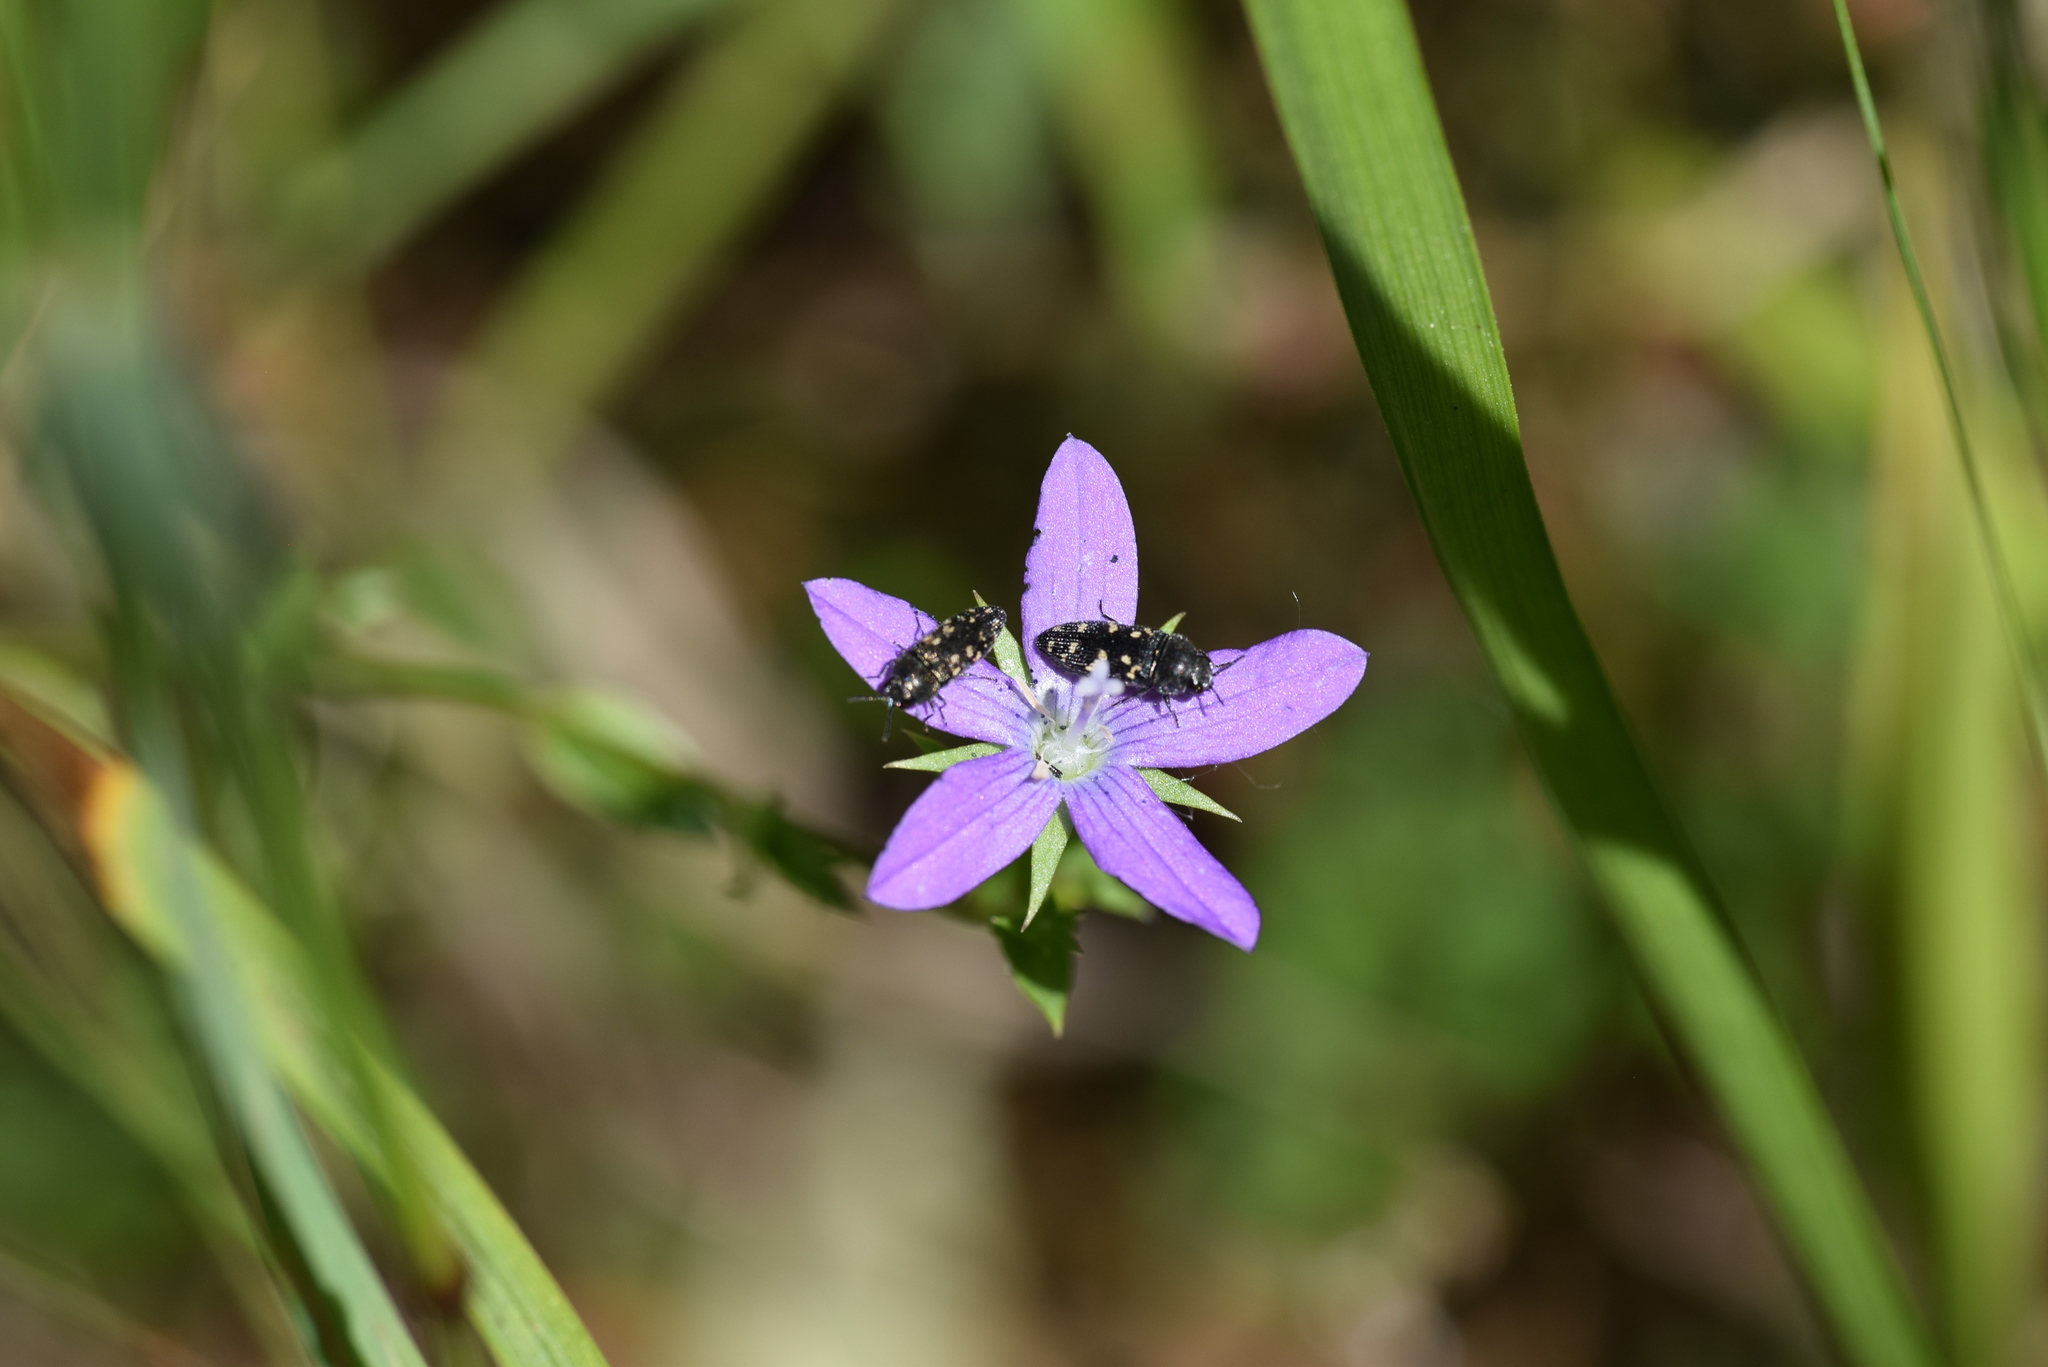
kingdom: Animalia
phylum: Arthropoda
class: Insecta
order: Coleoptera
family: Buprestidae
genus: Acmaeodera
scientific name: Acmaeodera tubulus
